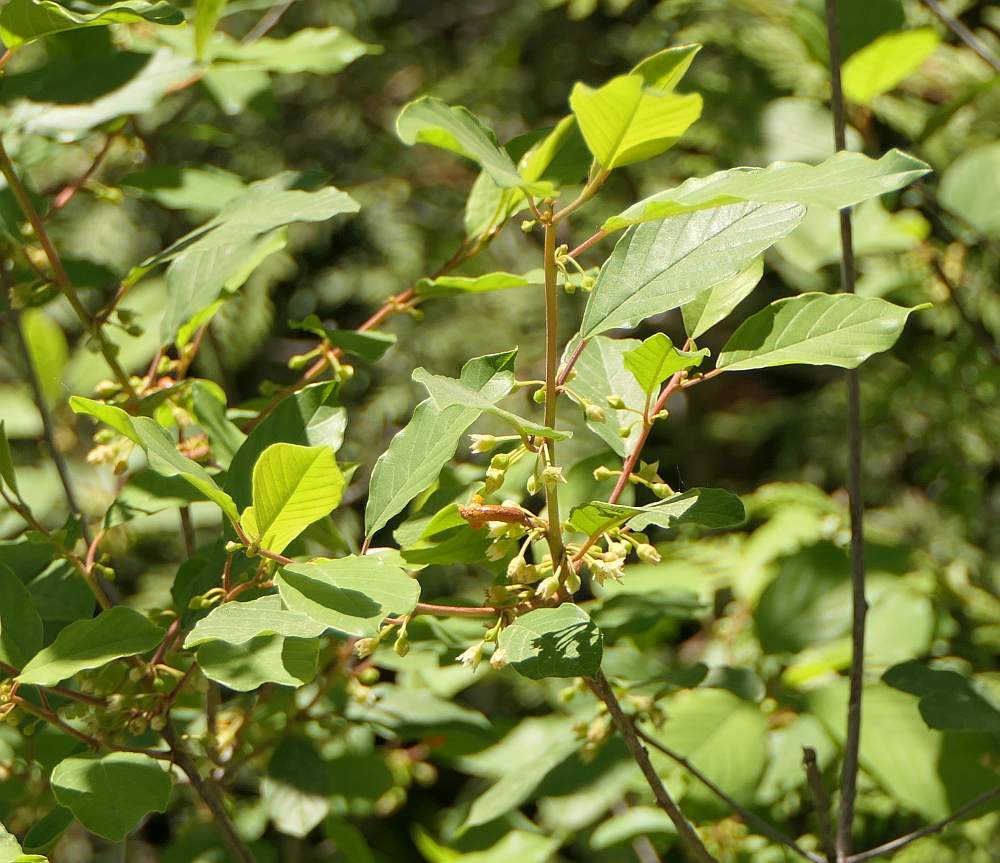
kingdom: Plantae
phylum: Tracheophyta
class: Magnoliopsida
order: Rosales
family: Rhamnaceae
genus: Frangula
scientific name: Frangula alnus
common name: Alder buckthorn
